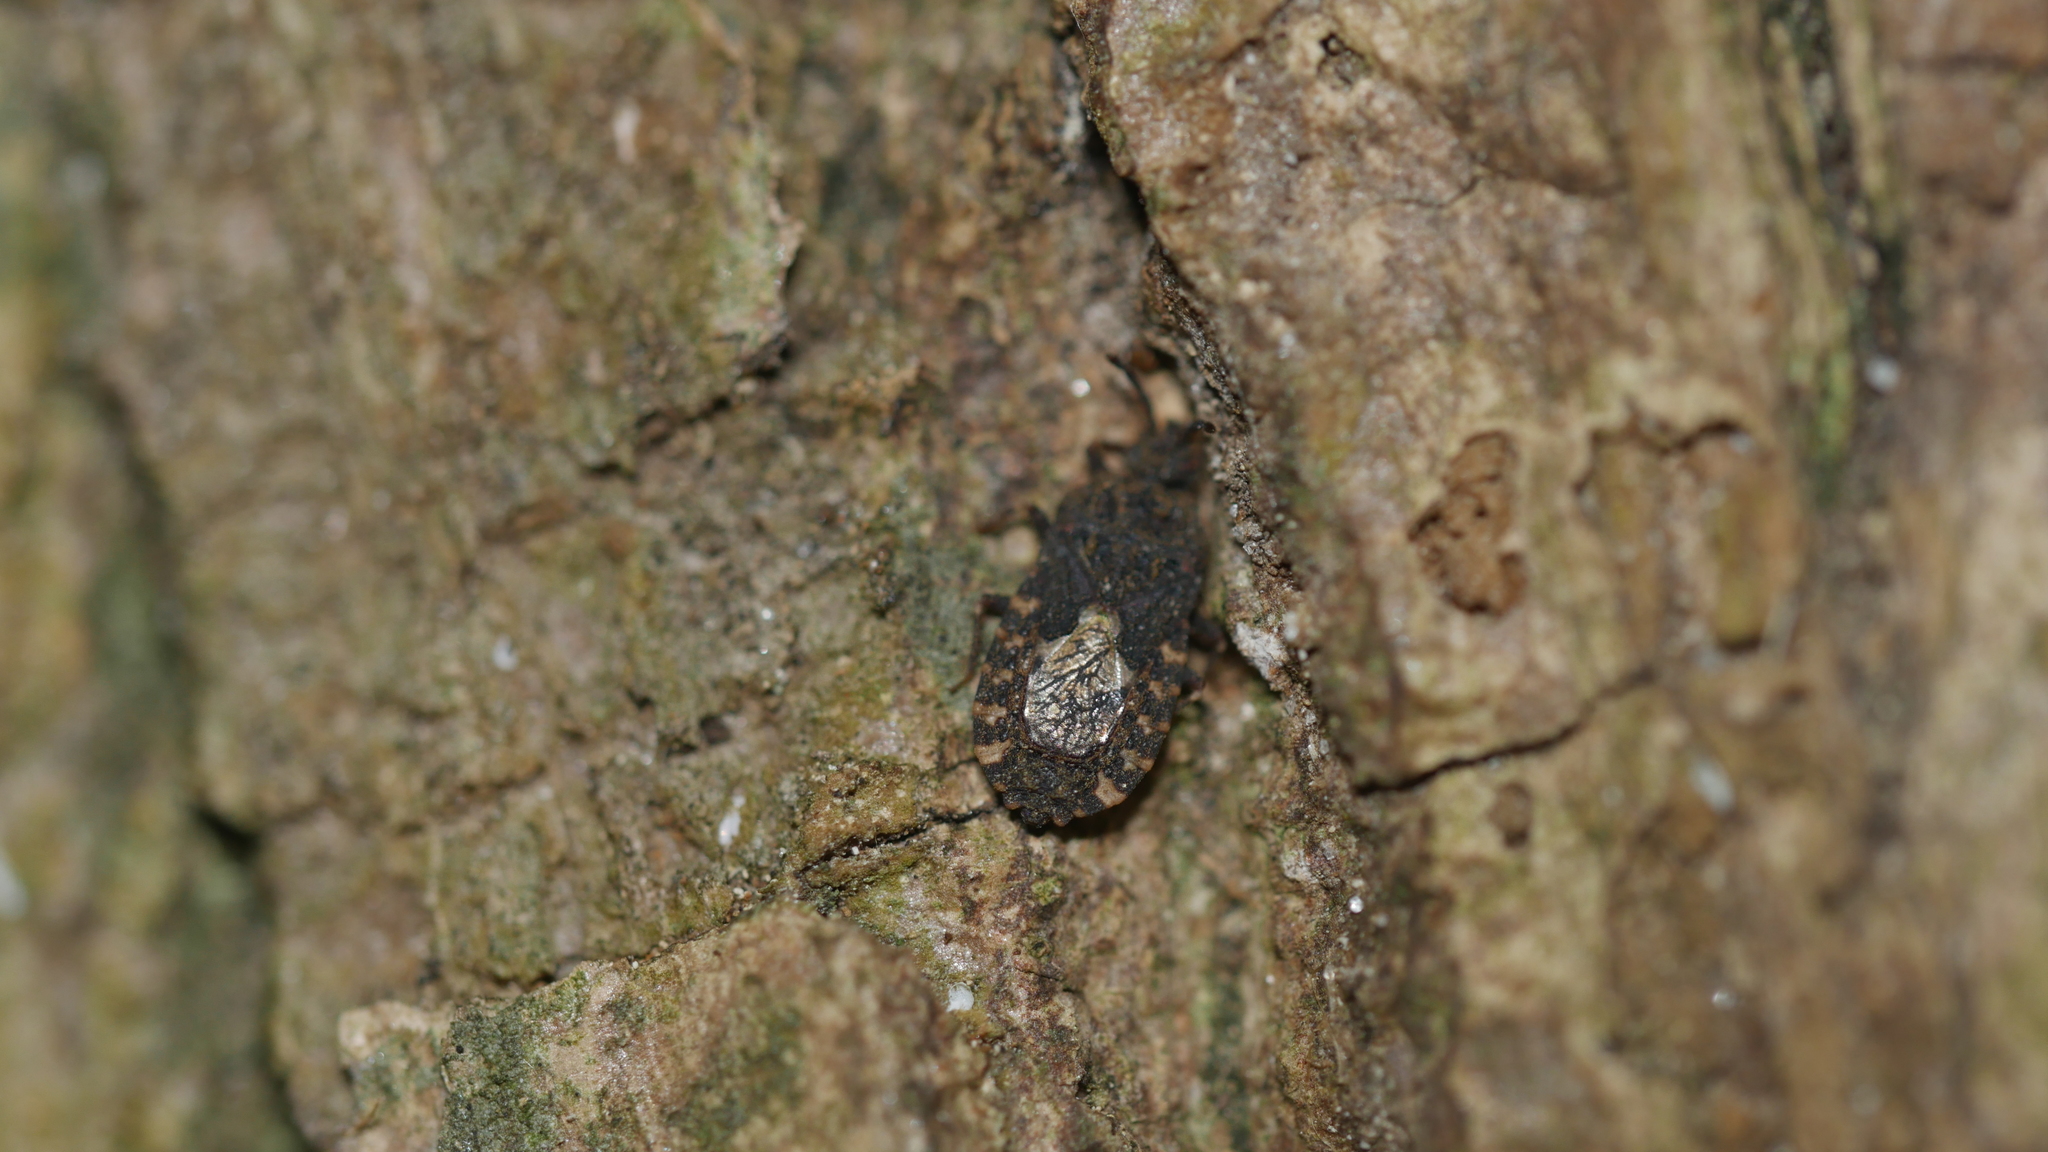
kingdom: Animalia
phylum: Arthropoda
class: Insecta
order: Hemiptera
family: Aradidae
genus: Mezira
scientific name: Mezira
